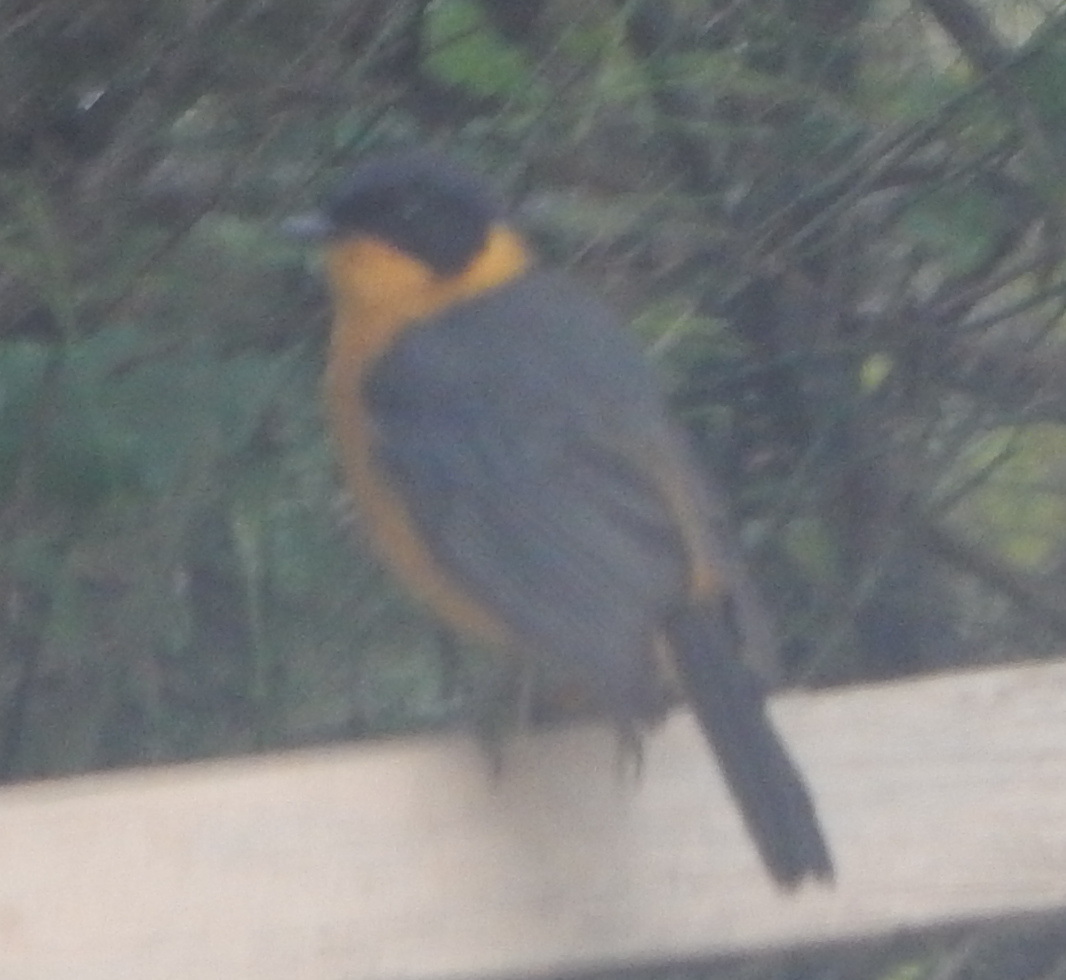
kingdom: Animalia
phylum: Chordata
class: Aves
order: Passeriformes
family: Muscicapidae
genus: Cossypha
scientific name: Cossypha dichroa
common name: Chorister robin-chat
